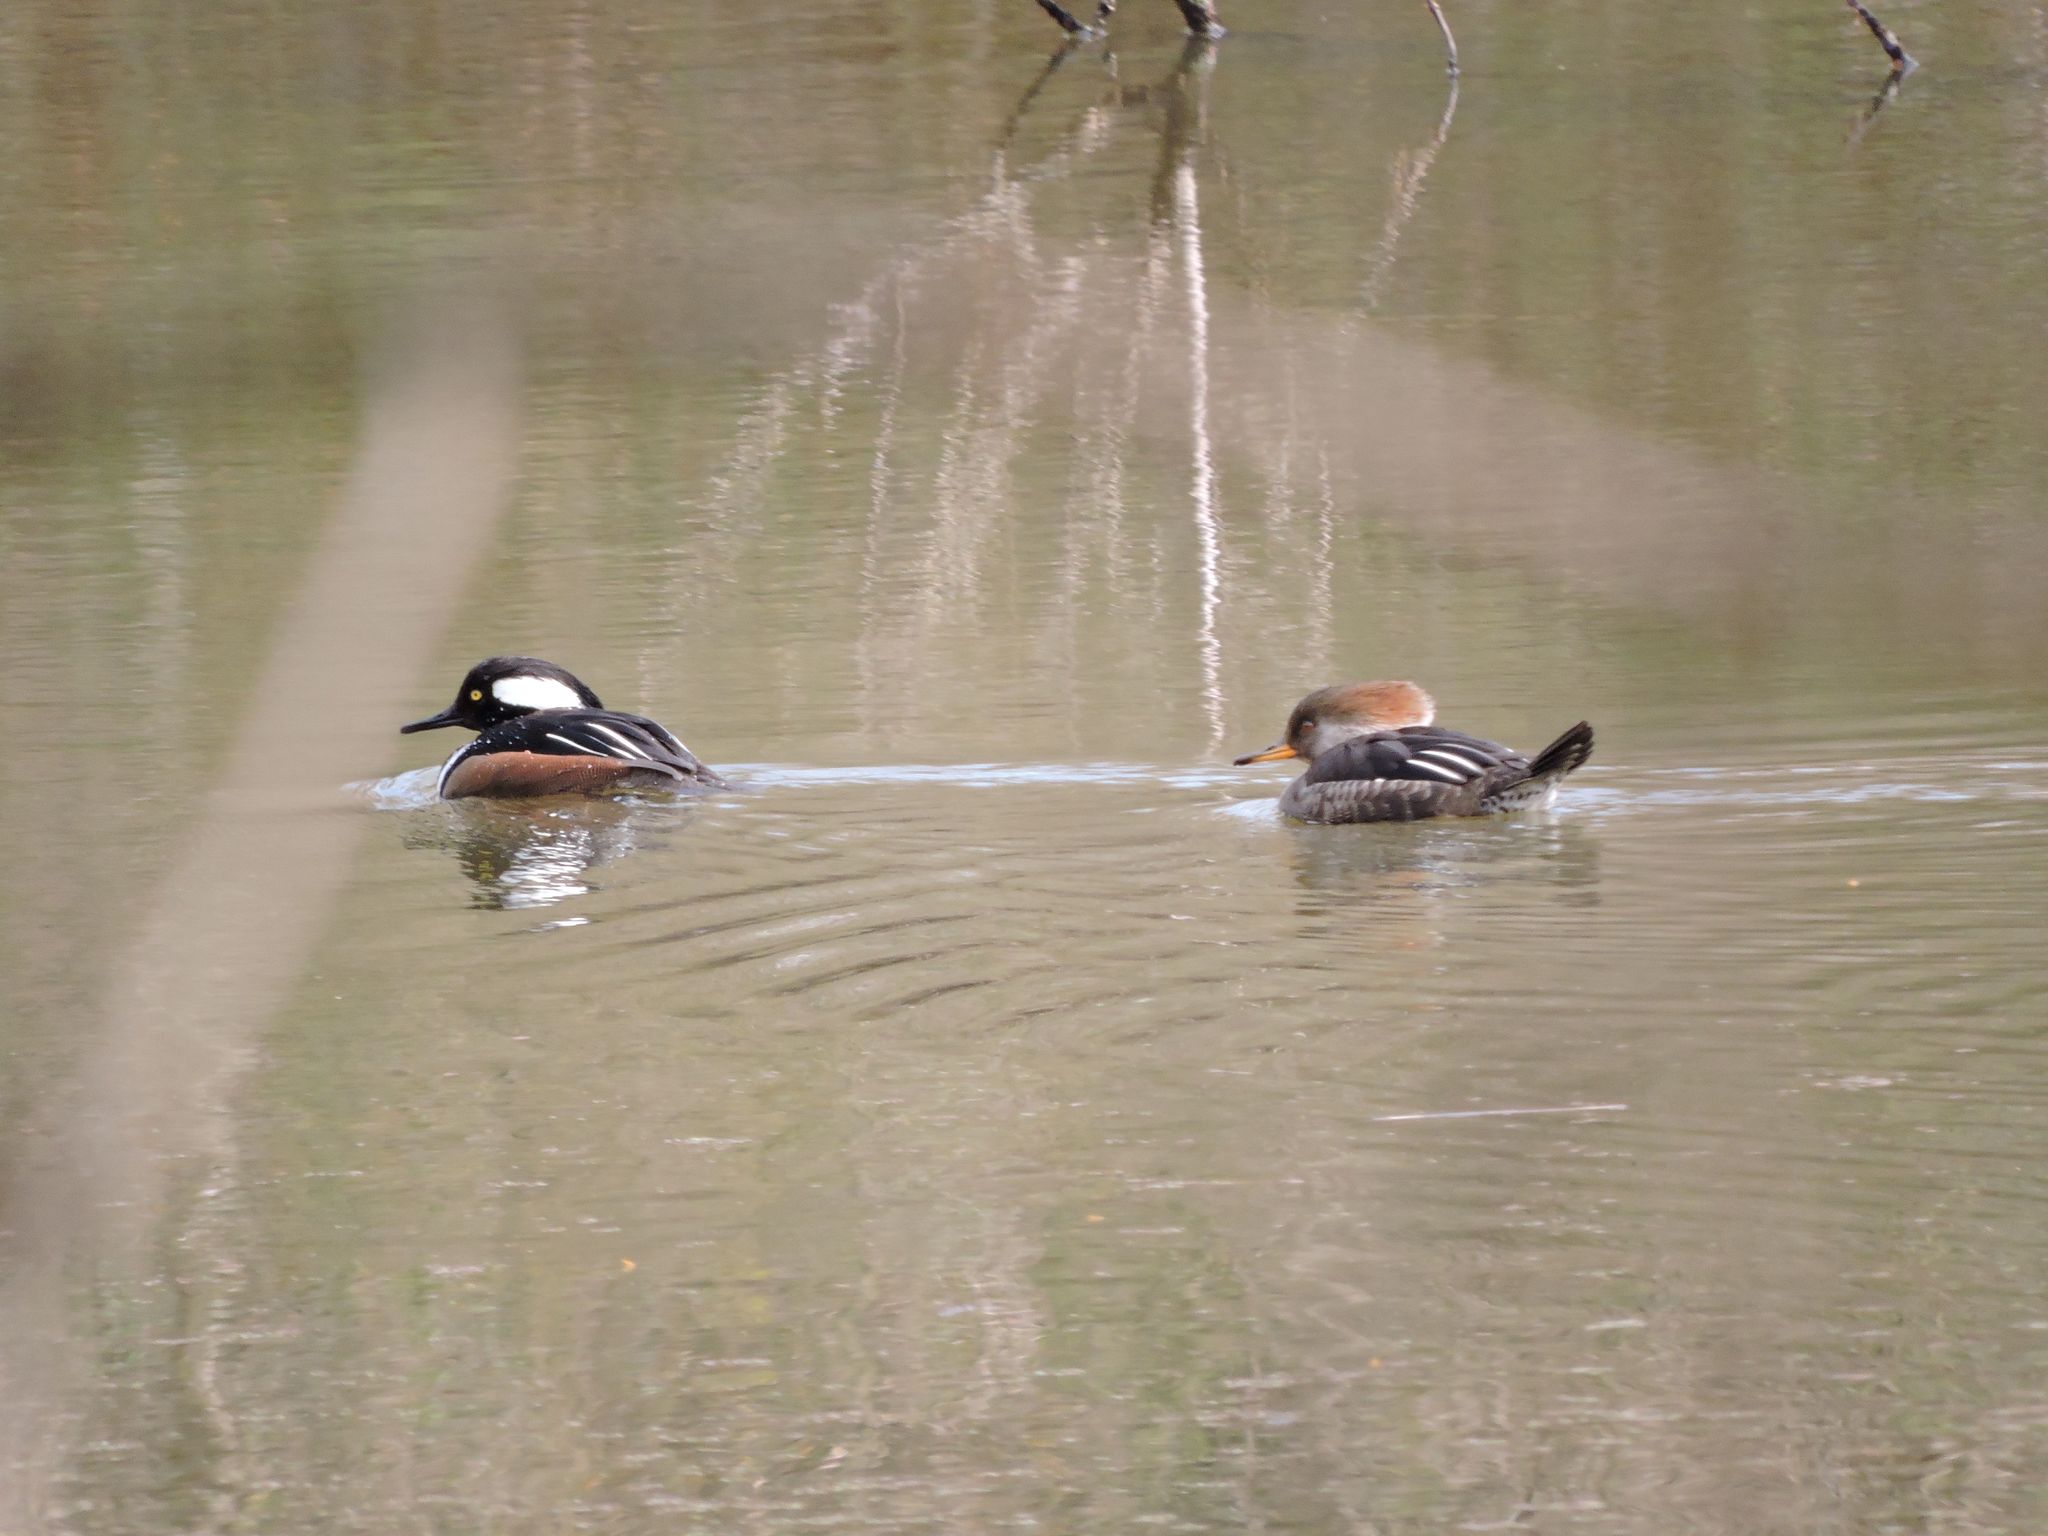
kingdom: Animalia
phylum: Chordata
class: Aves
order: Anseriformes
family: Anatidae
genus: Lophodytes
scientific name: Lophodytes cucullatus
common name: Hooded merganser
